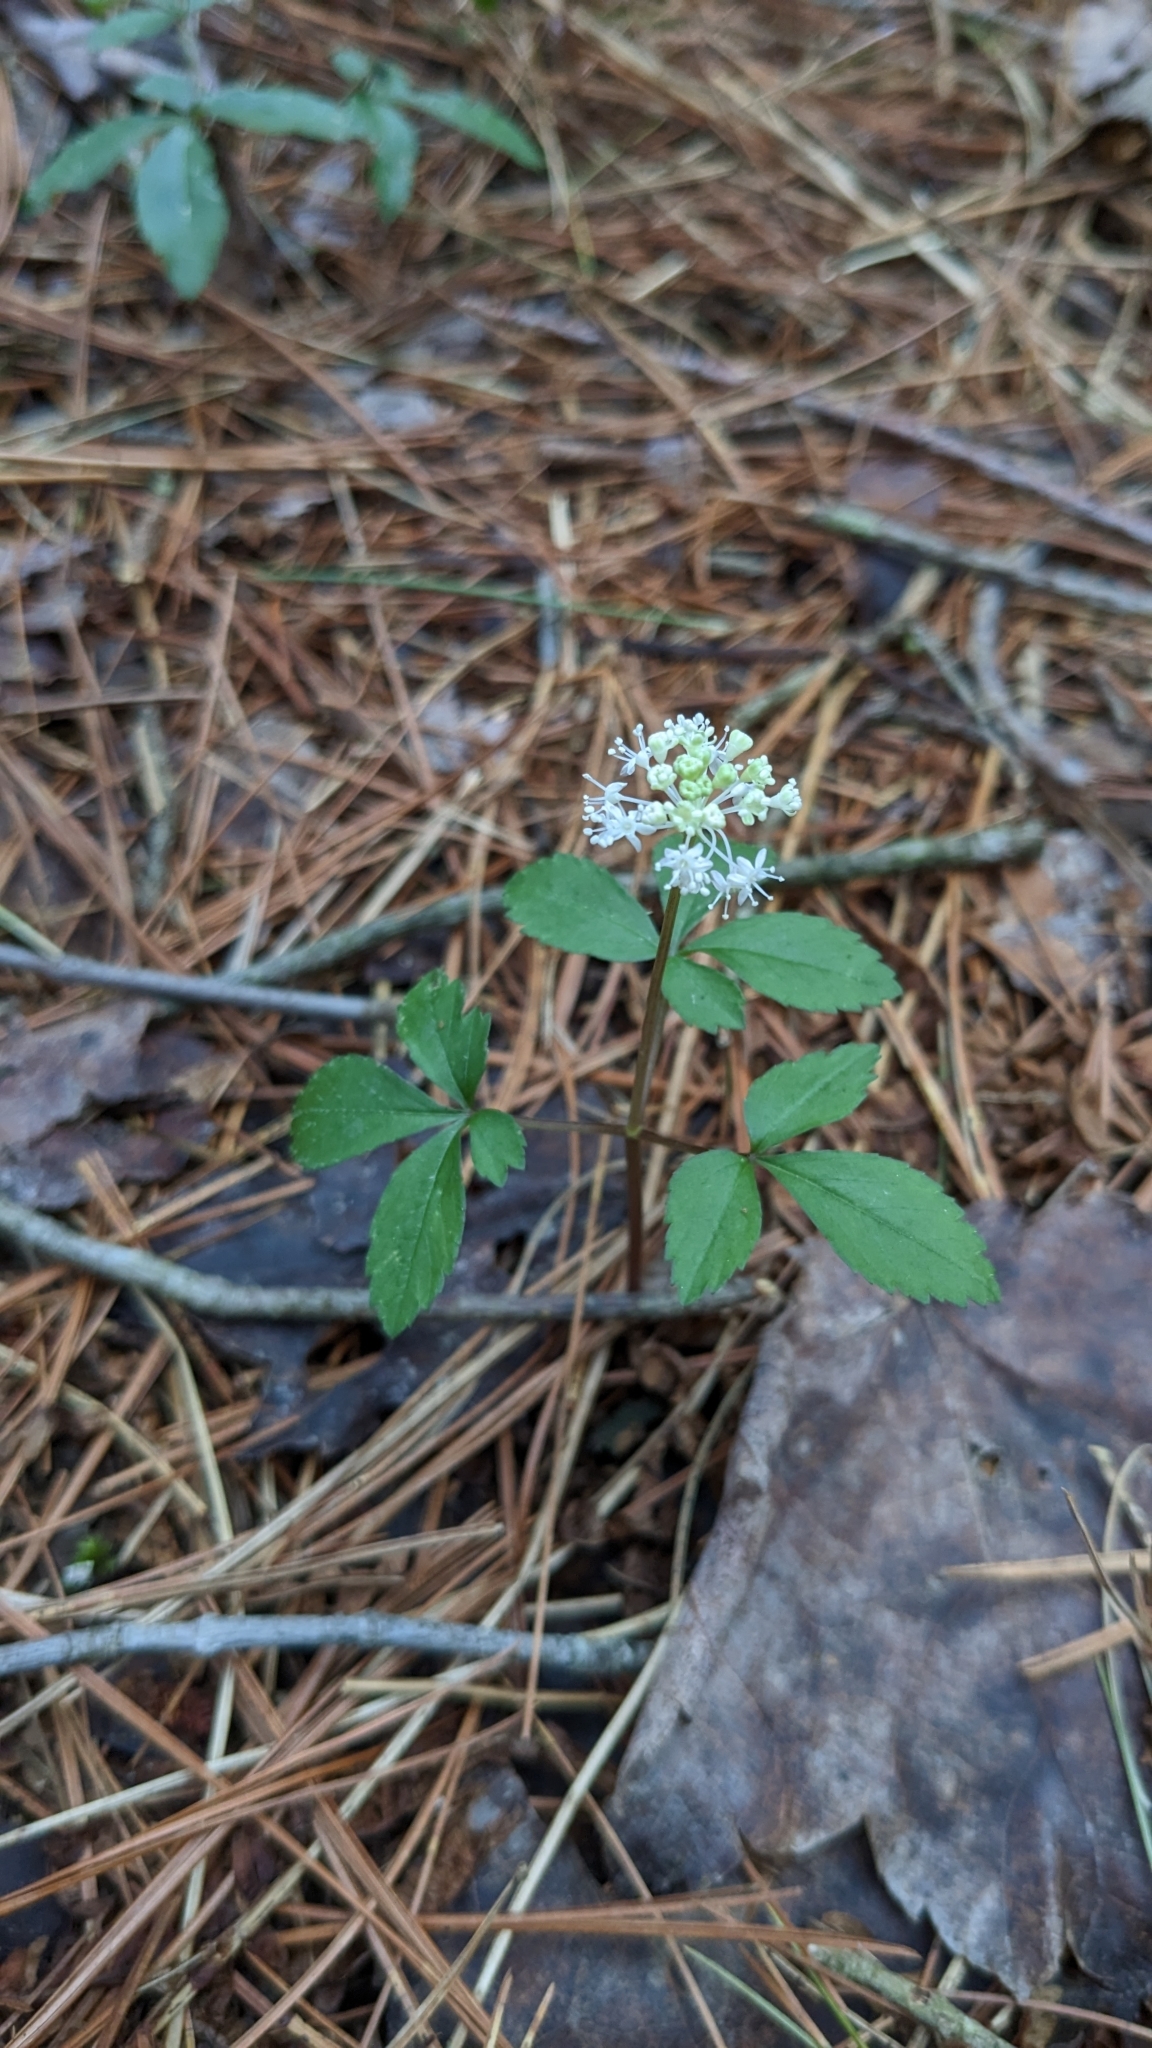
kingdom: Plantae
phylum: Tracheophyta
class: Magnoliopsida
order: Apiales
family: Araliaceae
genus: Panax
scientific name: Panax trifolius
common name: Dwarf ginseng
